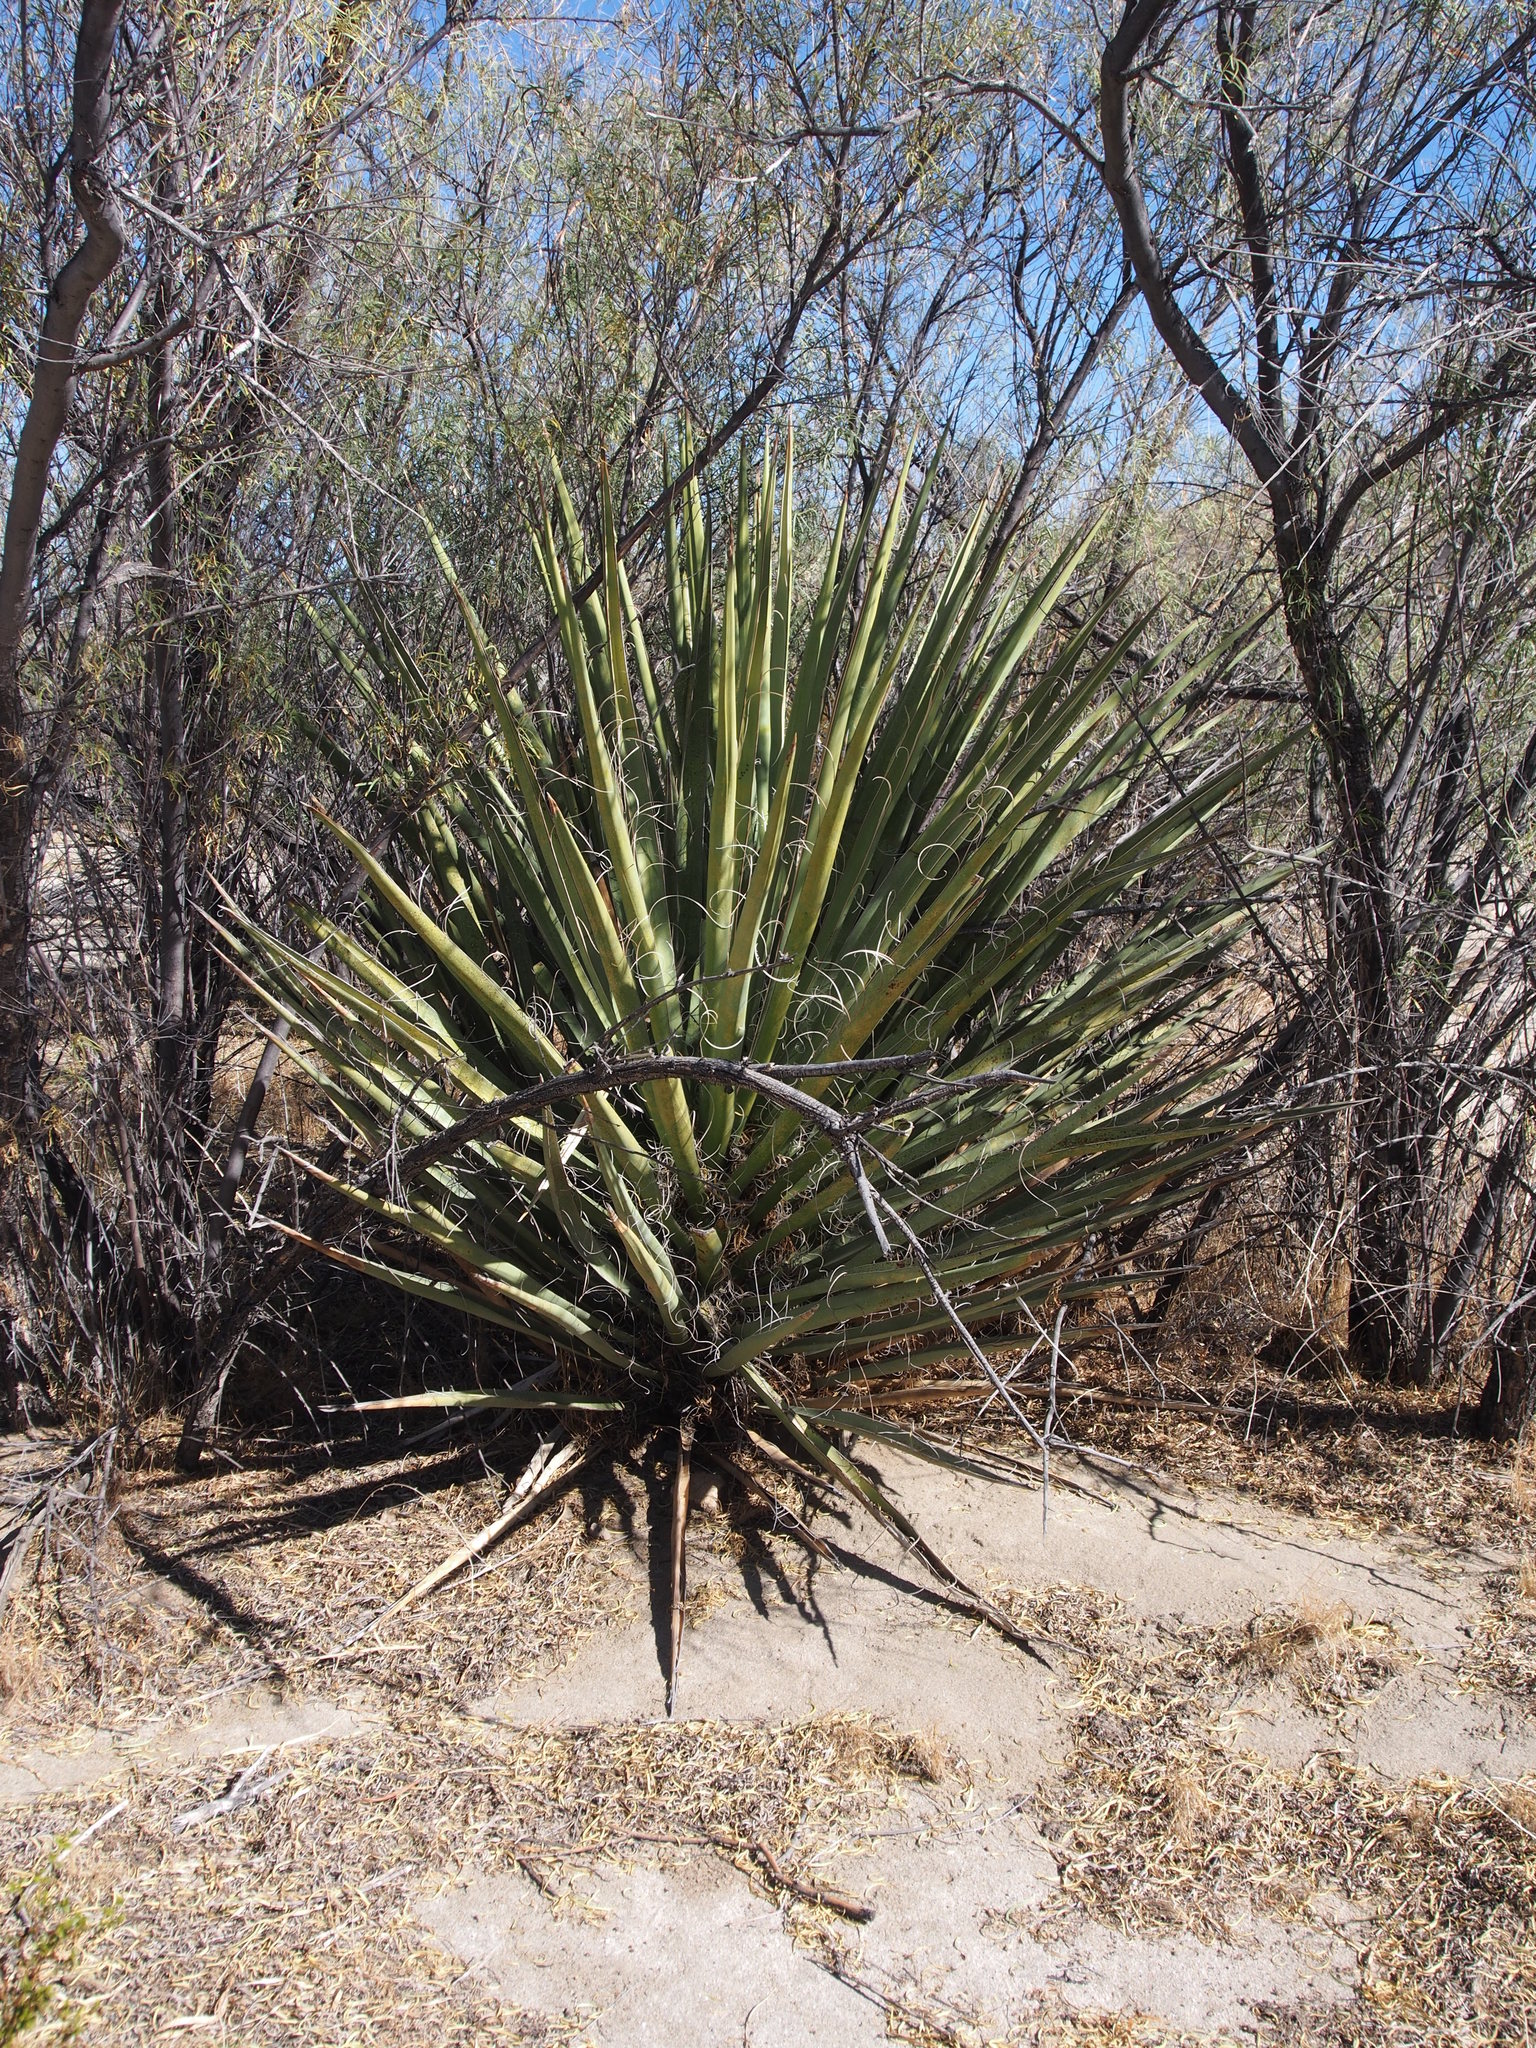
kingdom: Plantae
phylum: Tracheophyta
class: Liliopsida
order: Asparagales
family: Asparagaceae
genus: Yucca
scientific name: Yucca schidigera
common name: Mojave yucca
